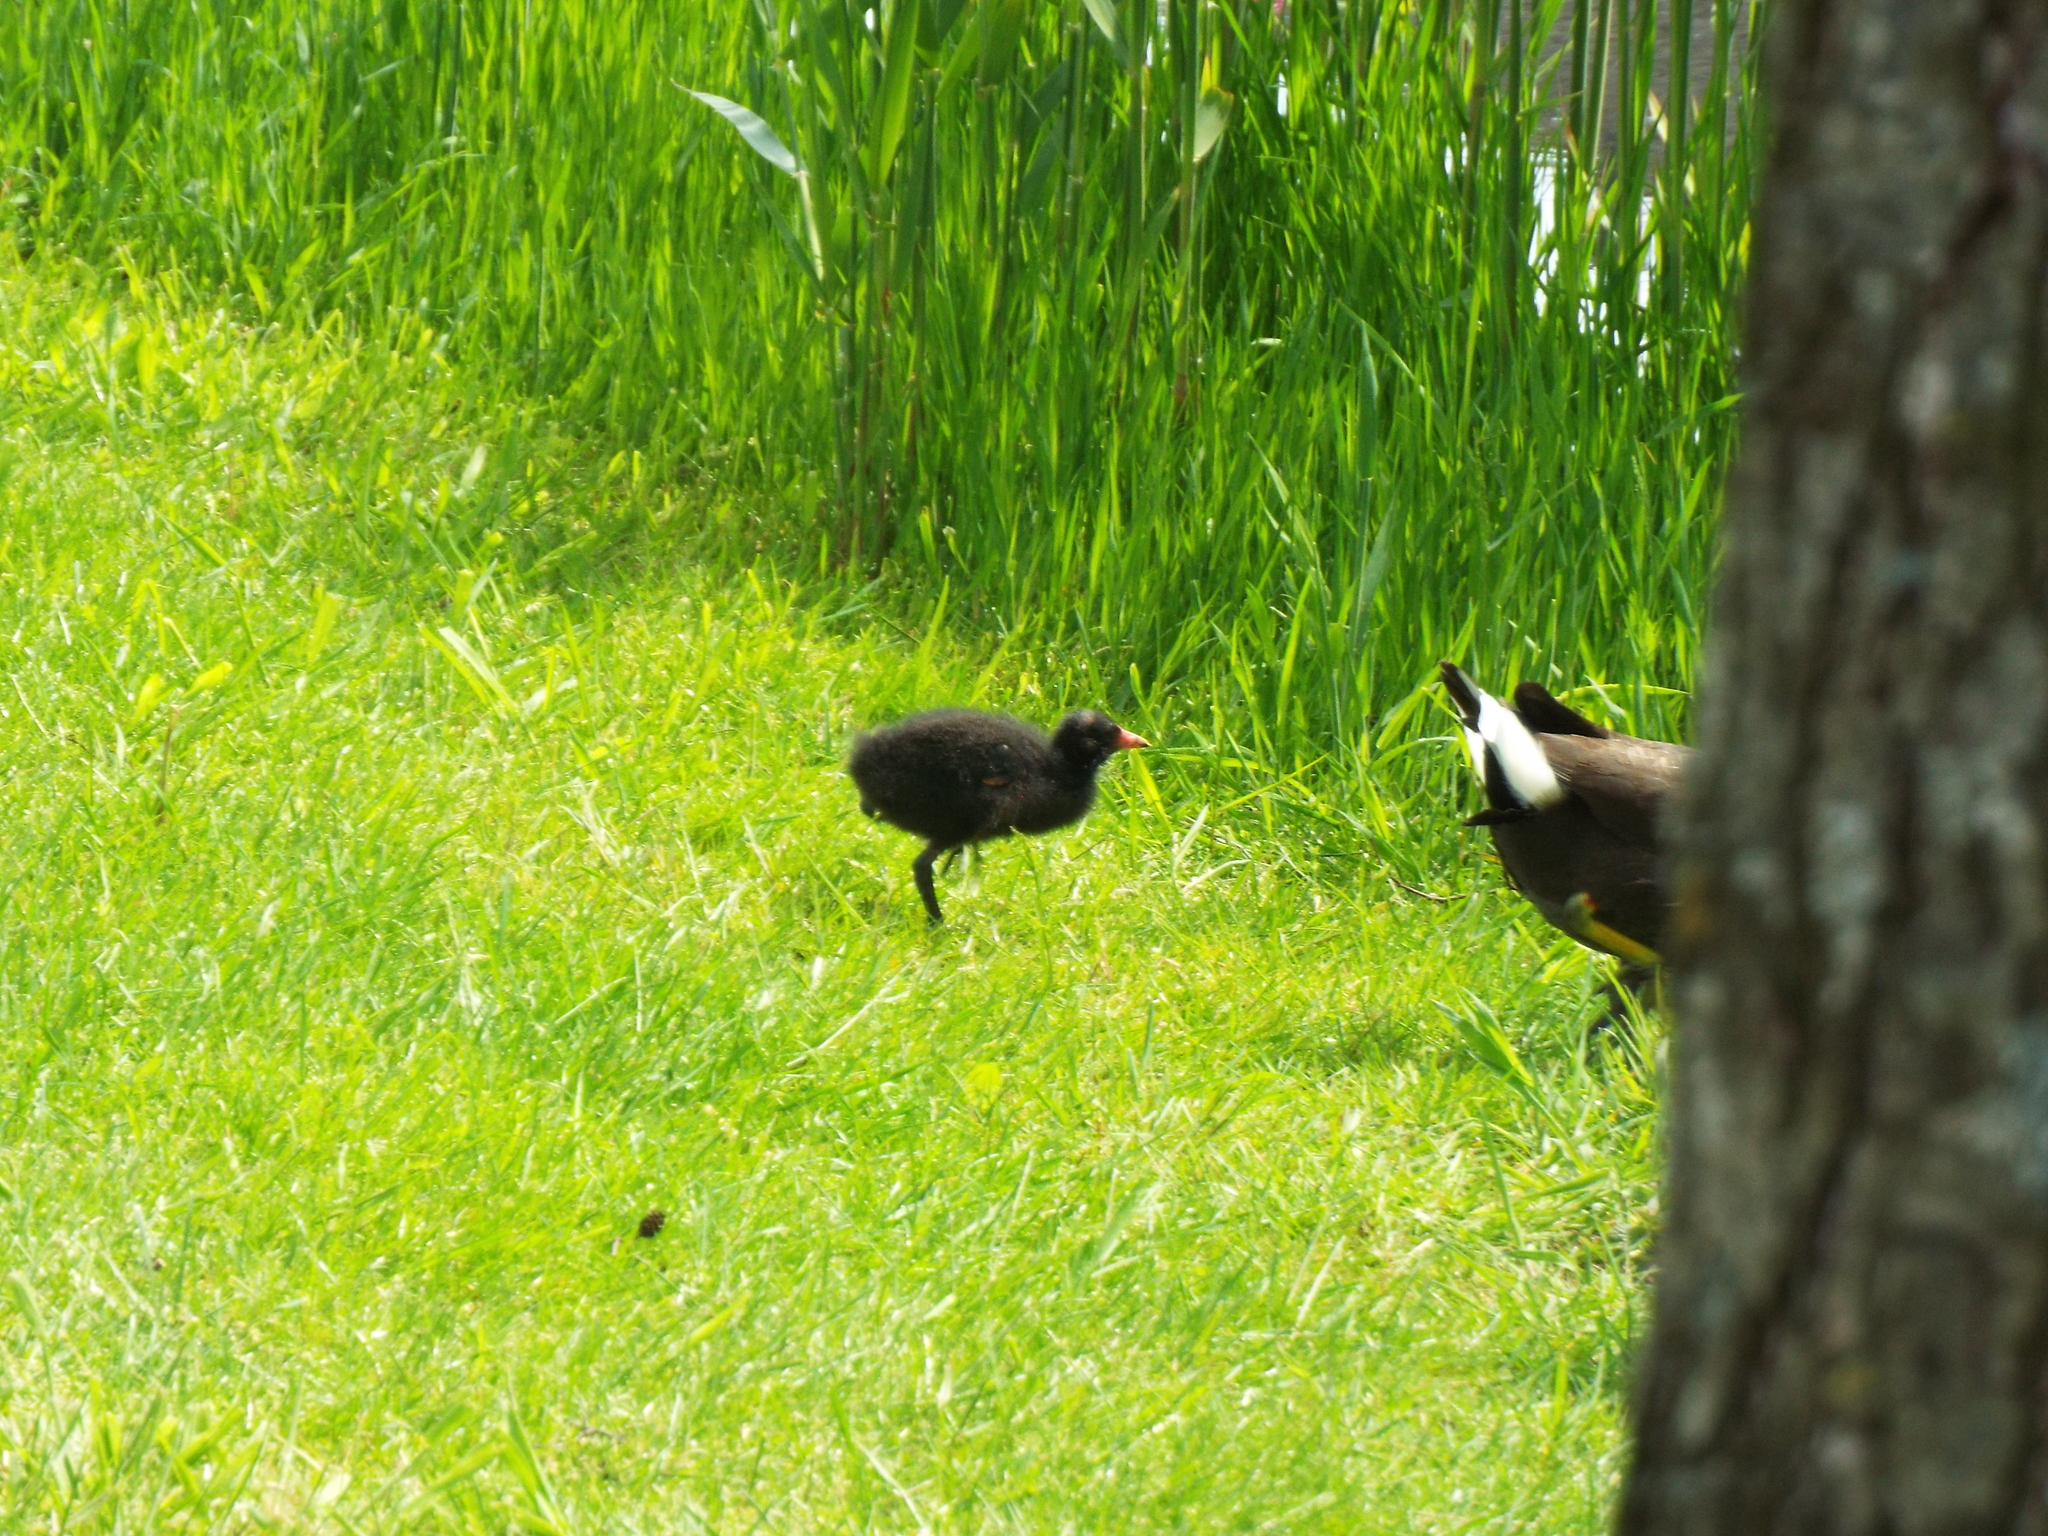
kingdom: Animalia
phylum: Chordata
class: Aves
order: Gruiformes
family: Rallidae
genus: Gallinula
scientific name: Gallinula chloropus
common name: Common moorhen
